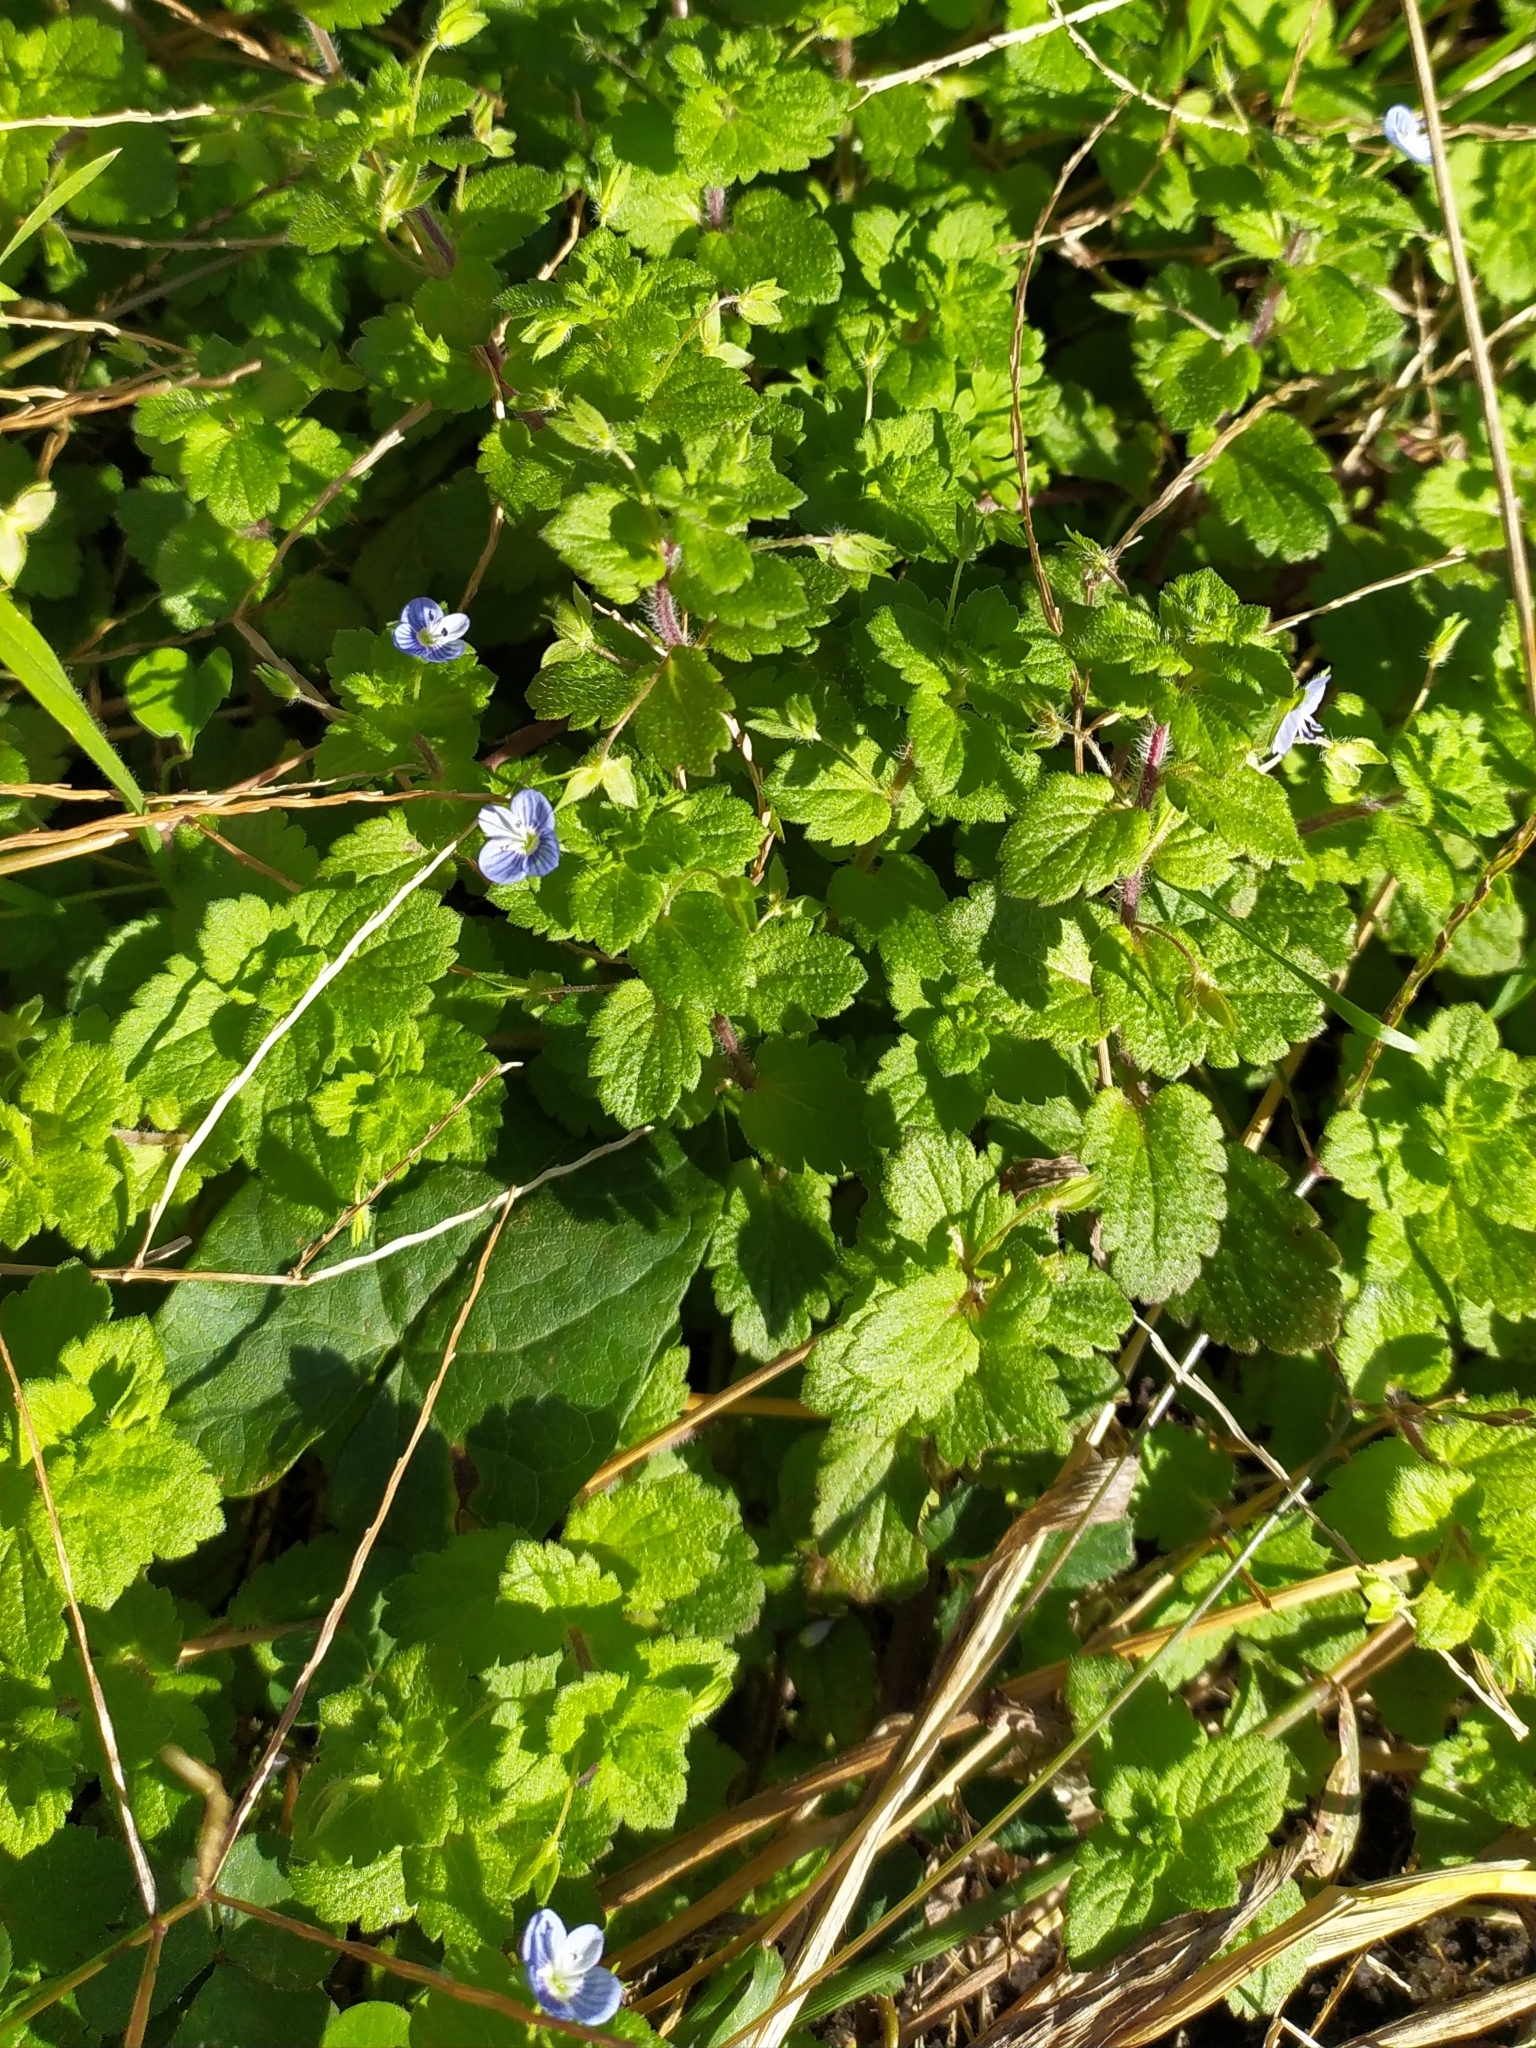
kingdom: Plantae
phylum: Tracheophyta
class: Magnoliopsida
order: Lamiales
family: Plantaginaceae
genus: Veronica
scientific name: Veronica persica
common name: Common field-speedwell
